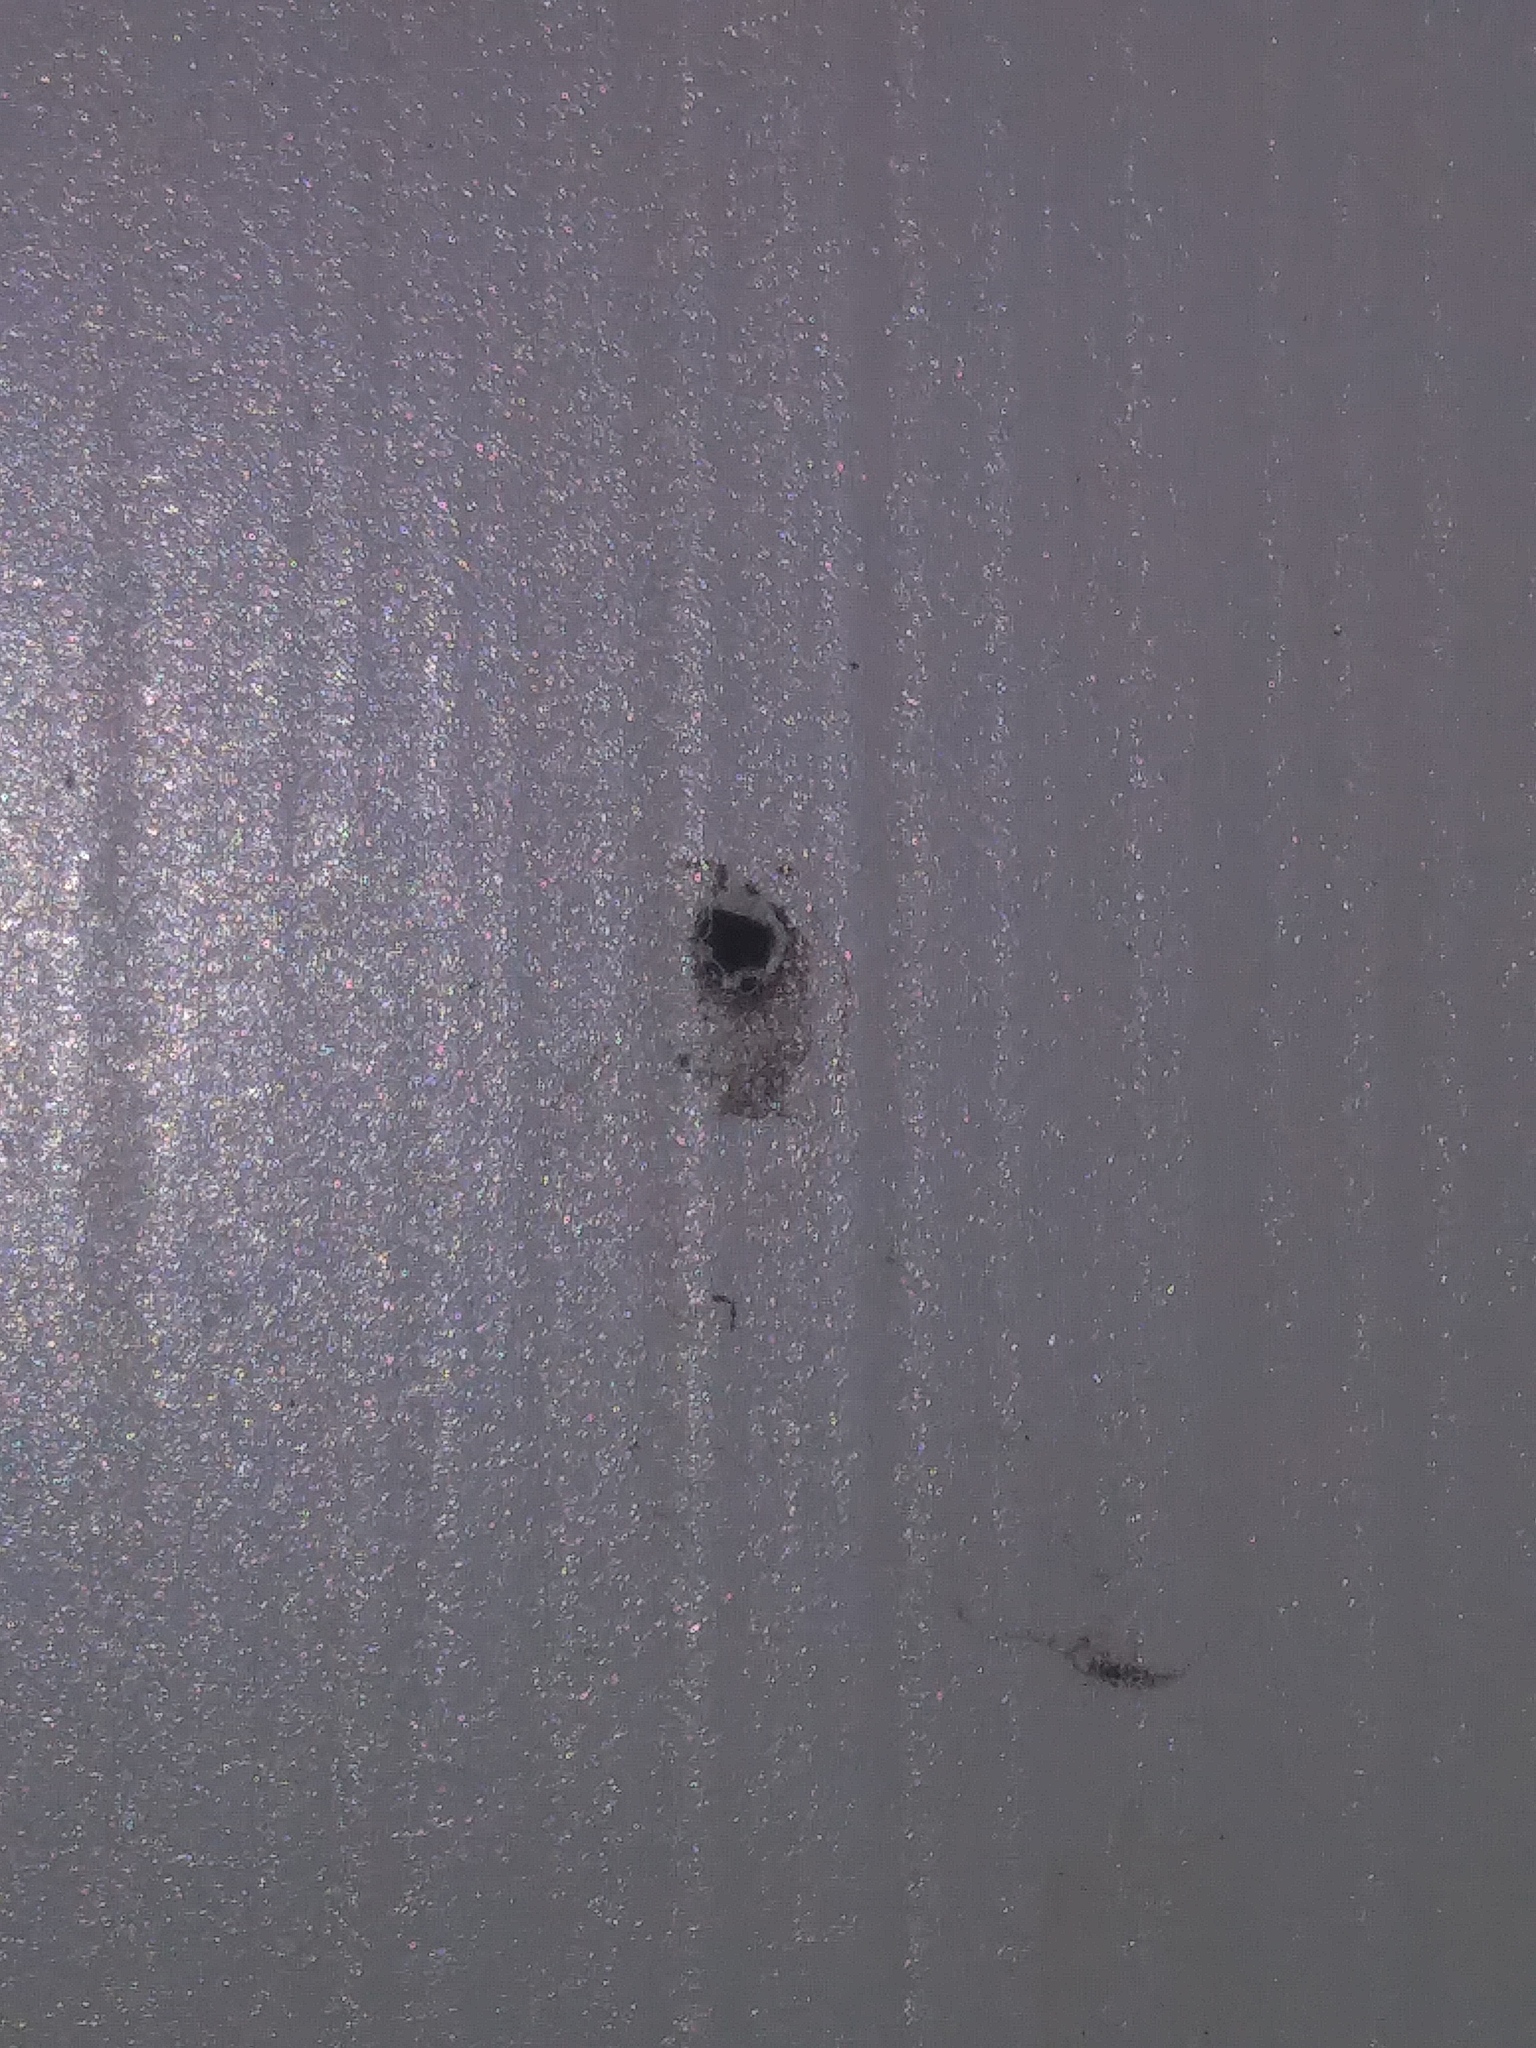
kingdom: Animalia
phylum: Arthropoda
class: Insecta
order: Lepidoptera
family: Erebidae
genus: Tetanolita
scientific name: Tetanolita mynesalis
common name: Smoky tetanolita moth
